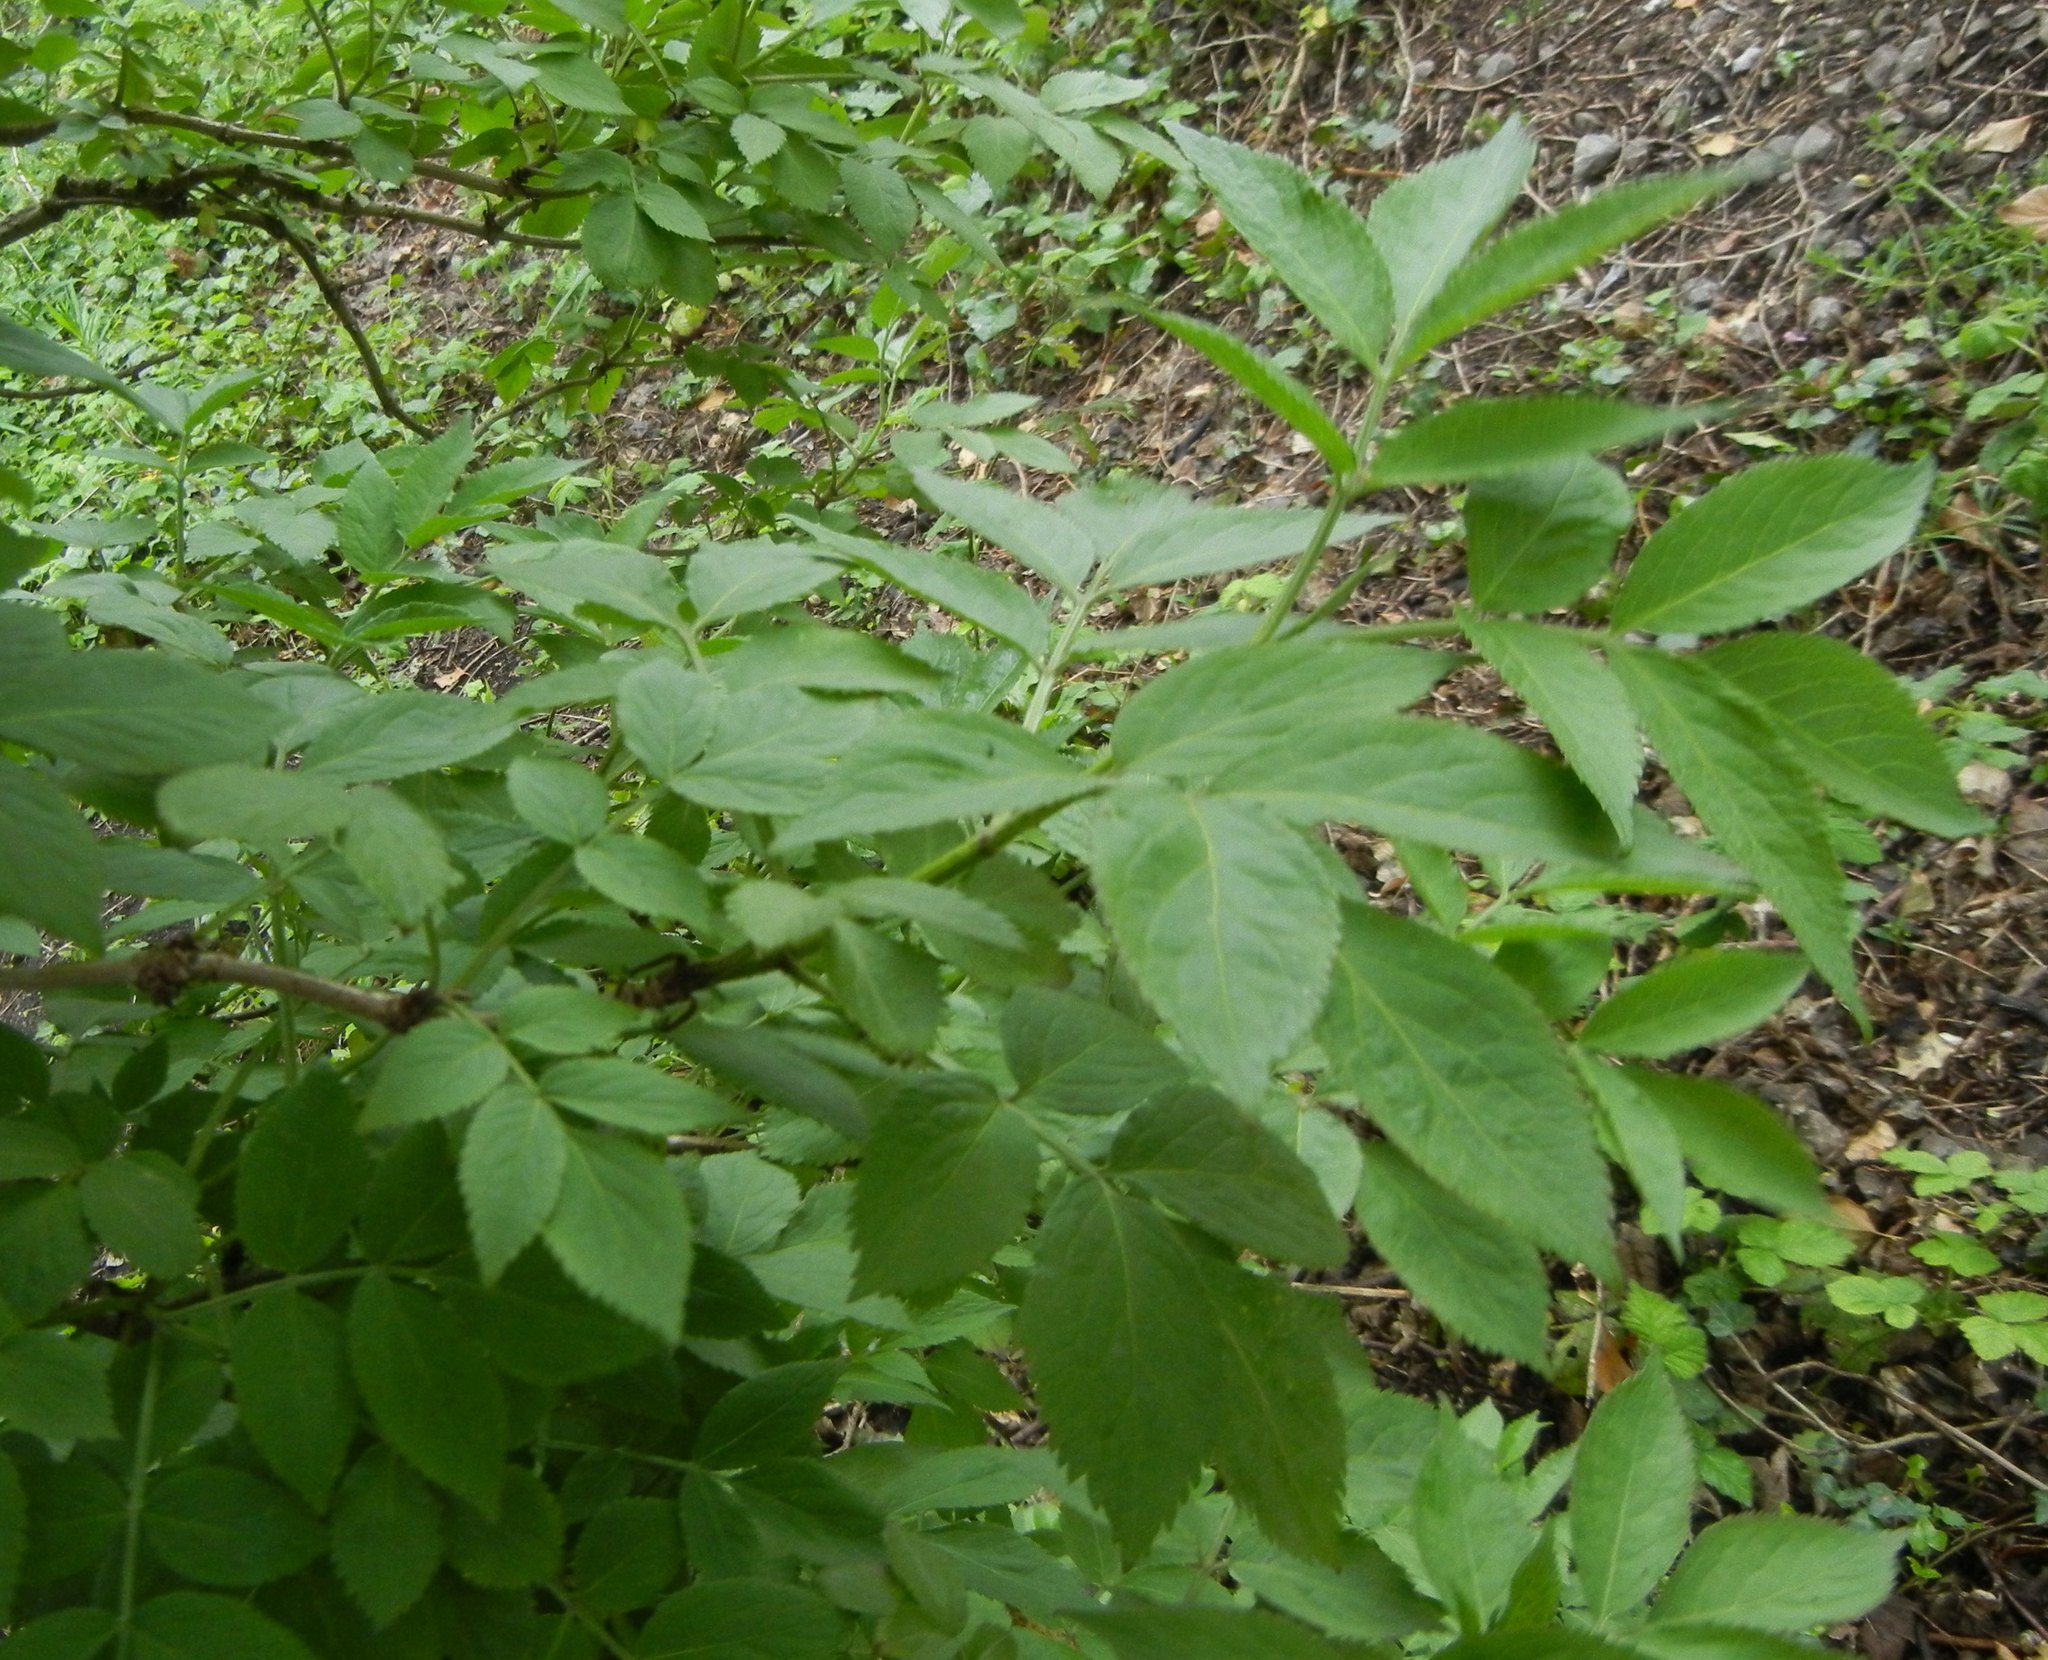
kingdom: Plantae
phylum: Tracheophyta
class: Magnoliopsida
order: Dipsacales
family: Viburnaceae
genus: Sambucus
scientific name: Sambucus nigra
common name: Elder
